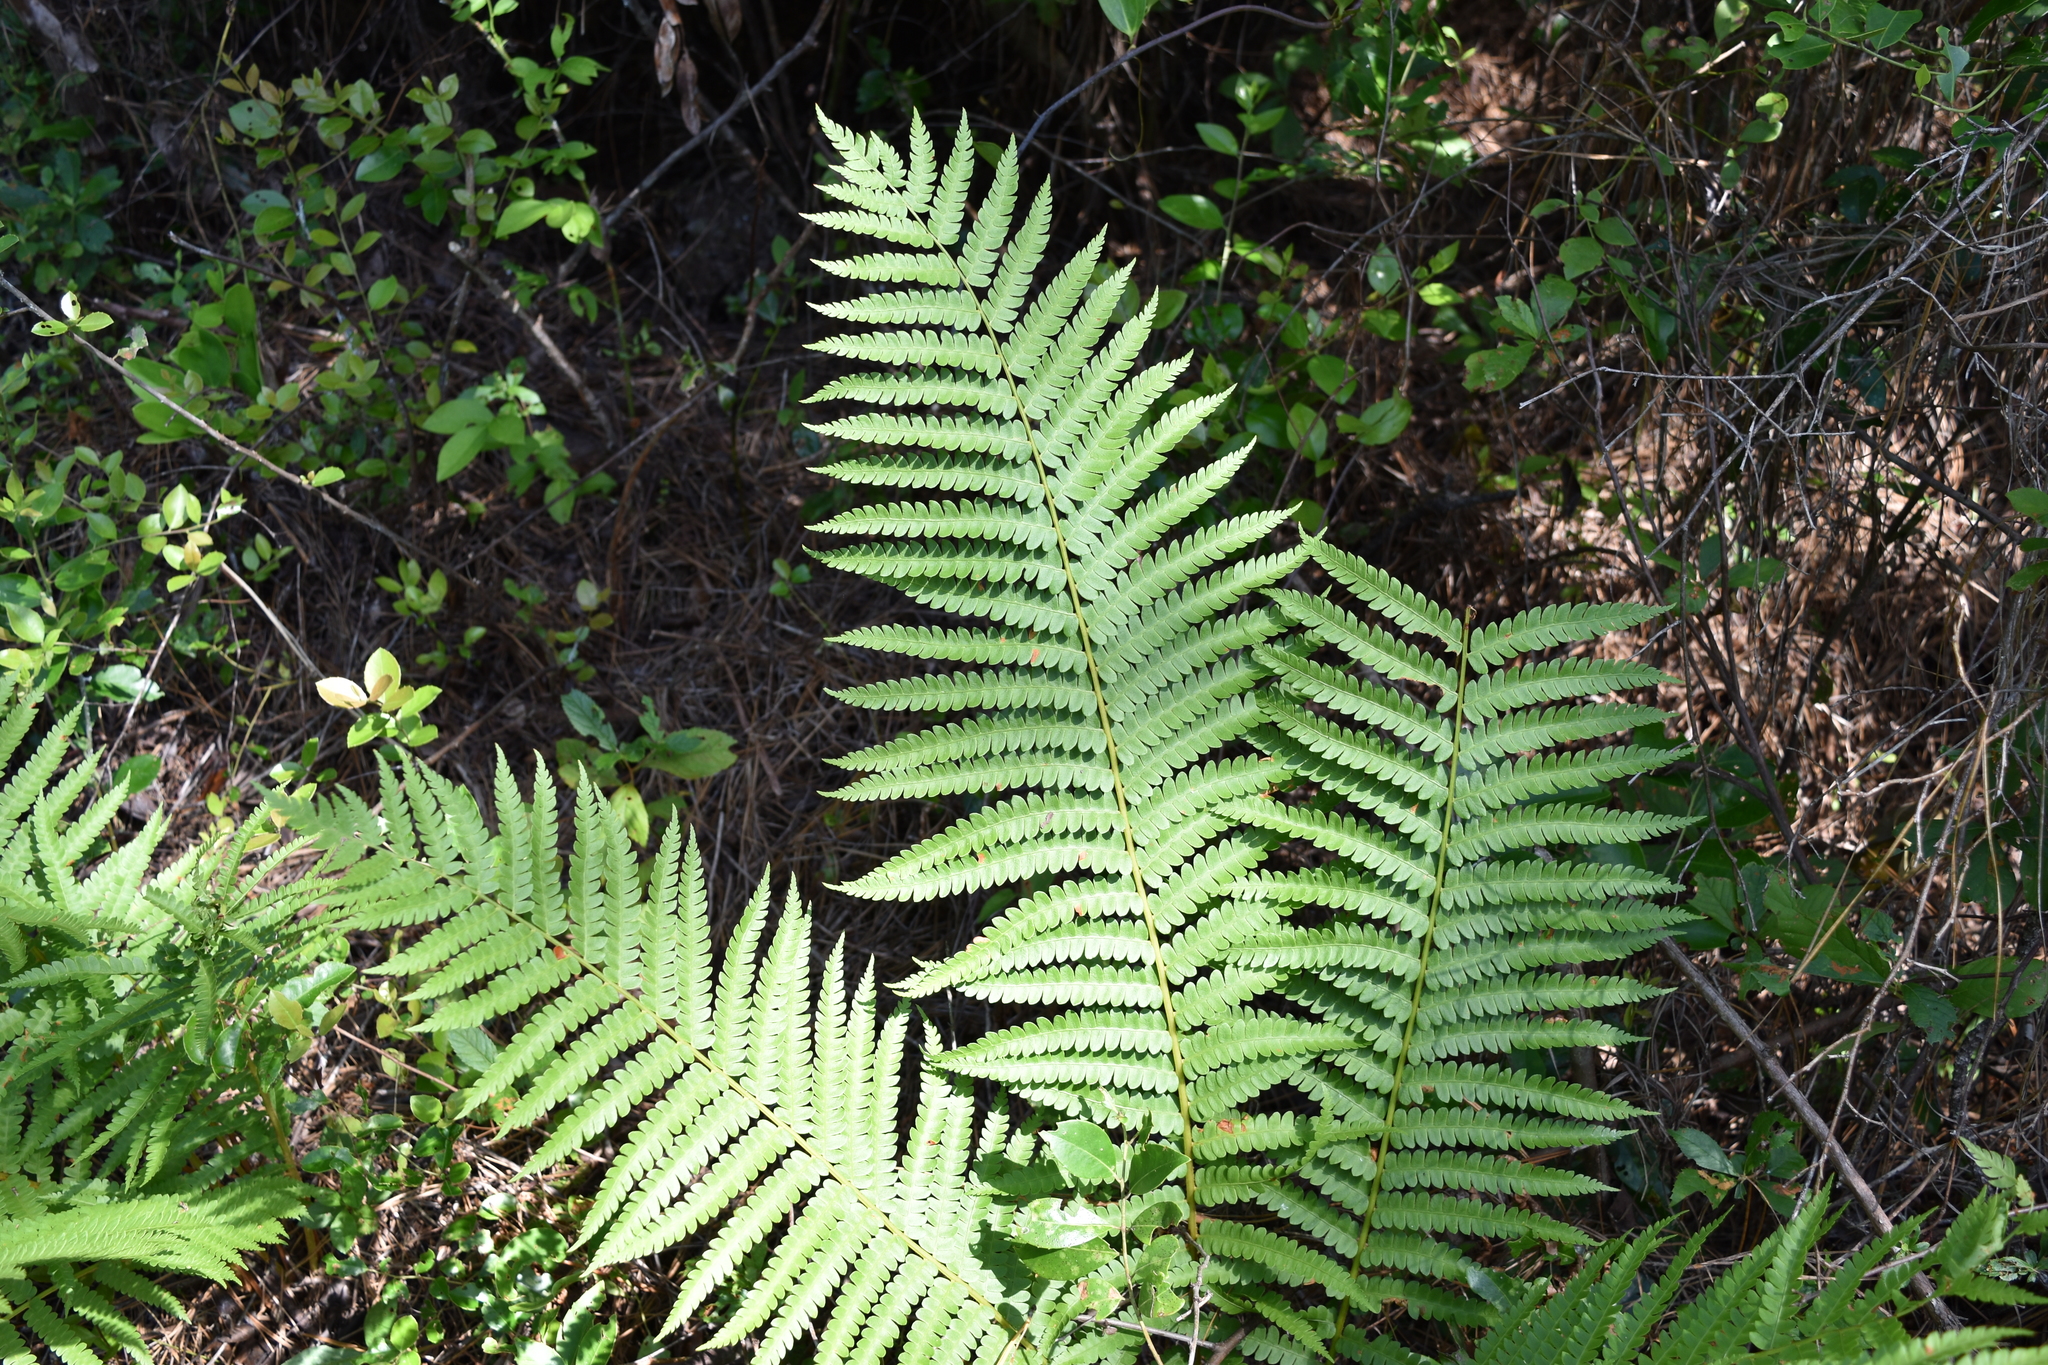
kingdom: Plantae
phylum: Tracheophyta
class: Polypodiopsida
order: Osmundales
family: Osmundaceae
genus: Osmundastrum
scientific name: Osmundastrum cinnamomeum
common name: Cinnamon fern
